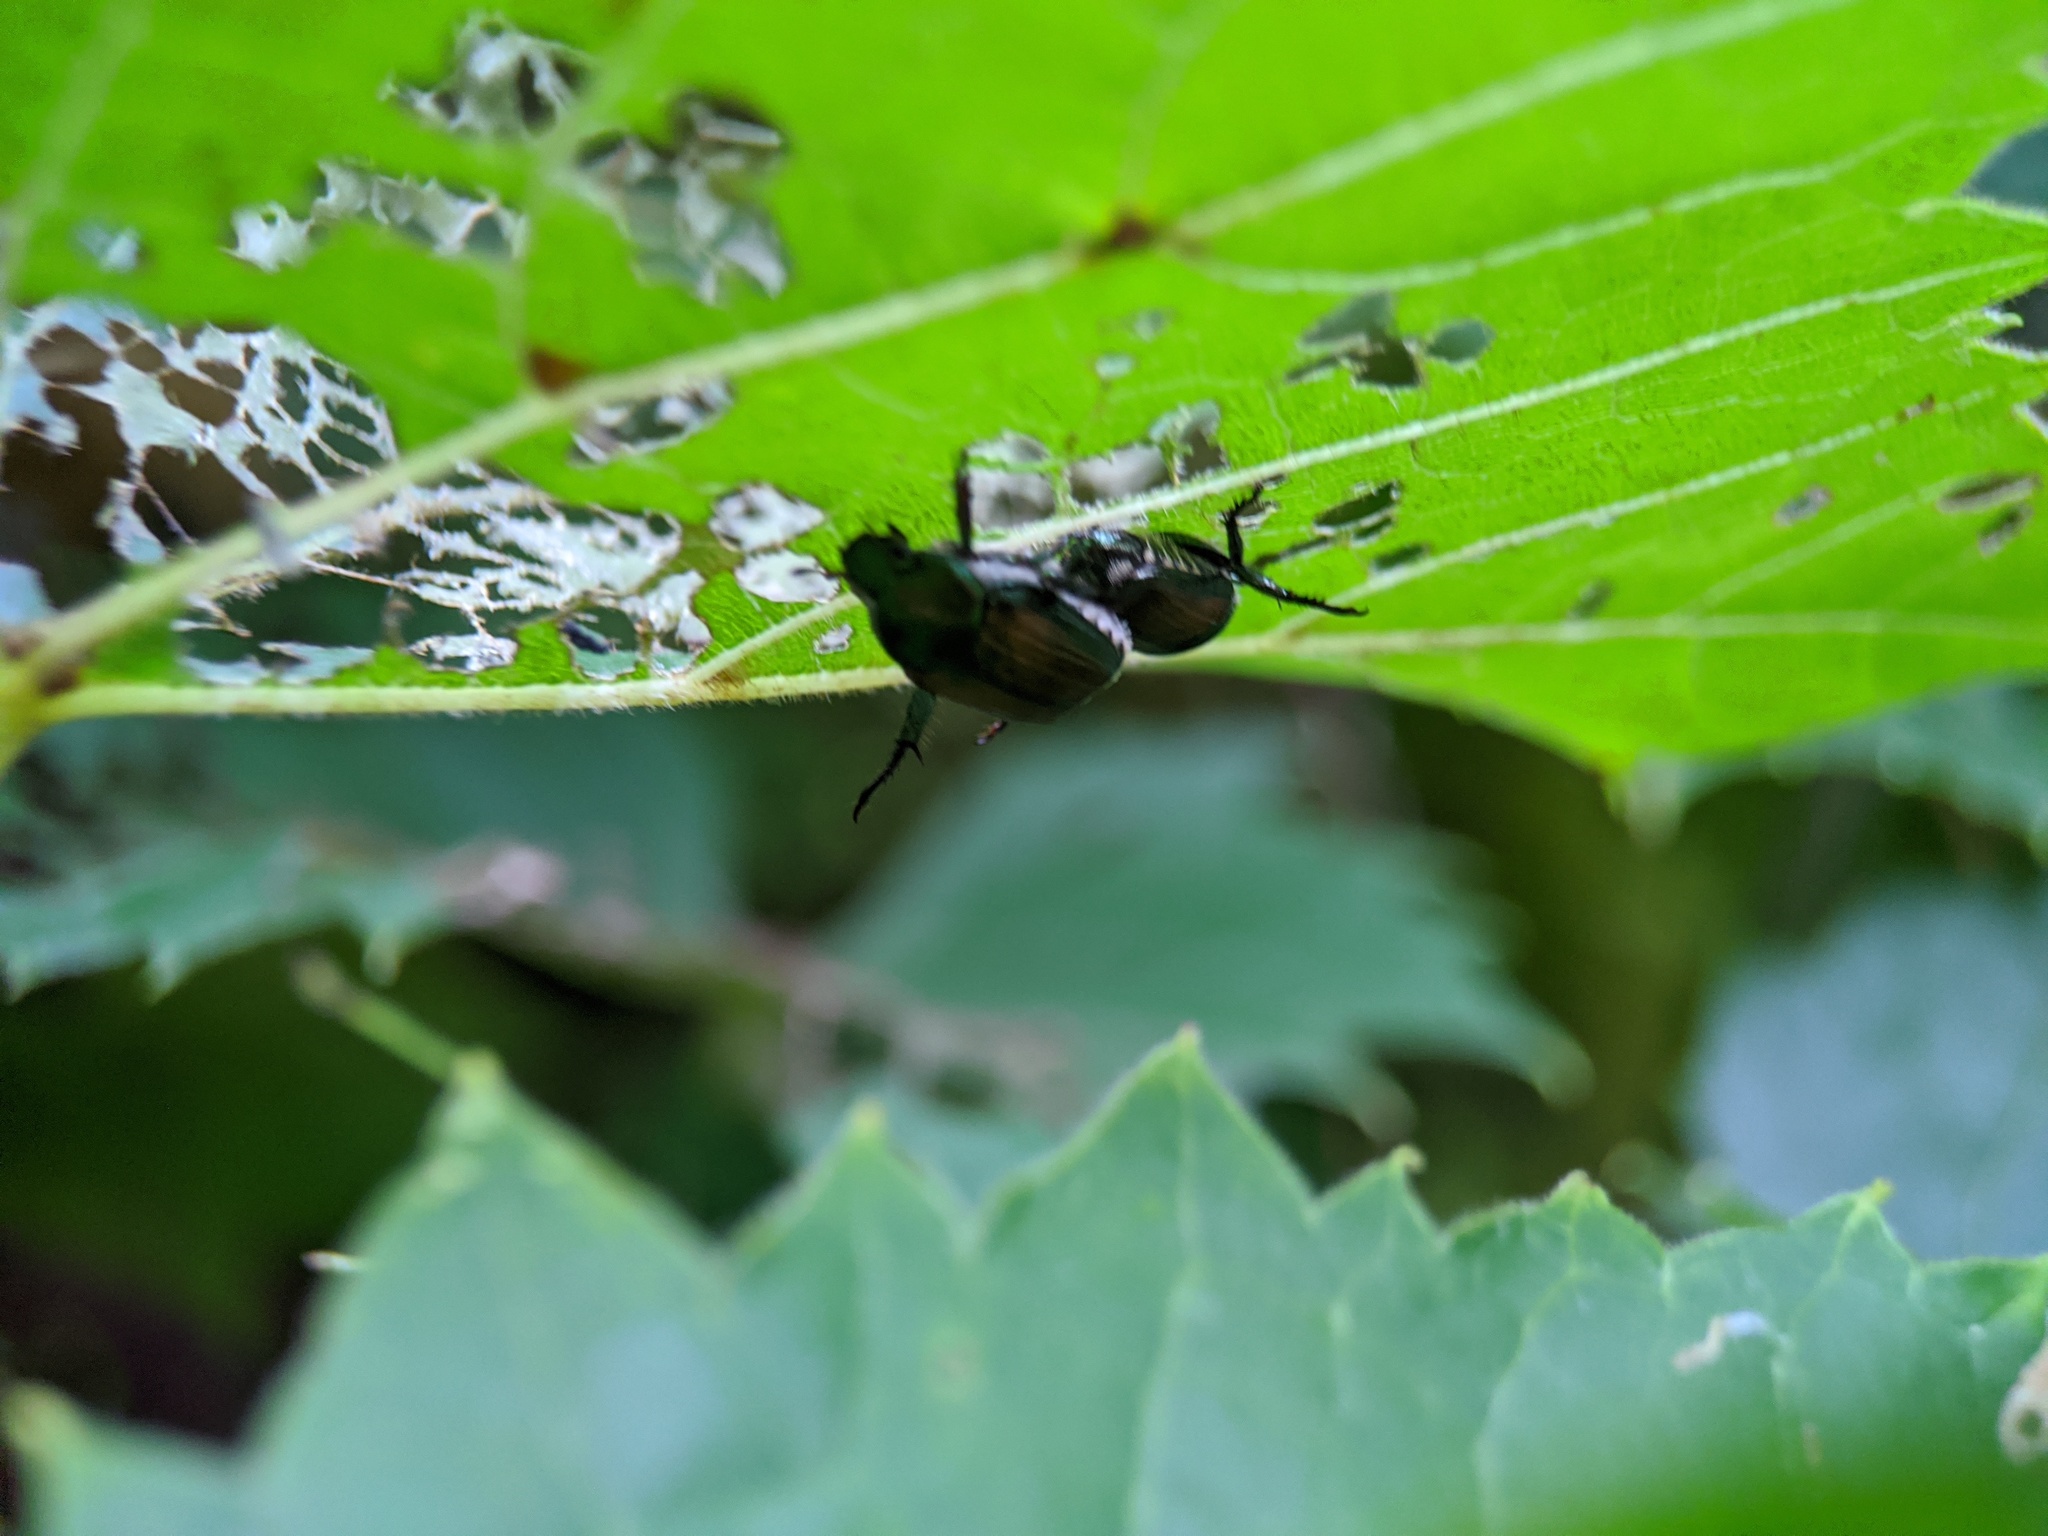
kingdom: Animalia
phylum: Arthropoda
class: Insecta
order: Coleoptera
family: Scarabaeidae
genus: Popillia
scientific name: Popillia japonica
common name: Japanese beetle
